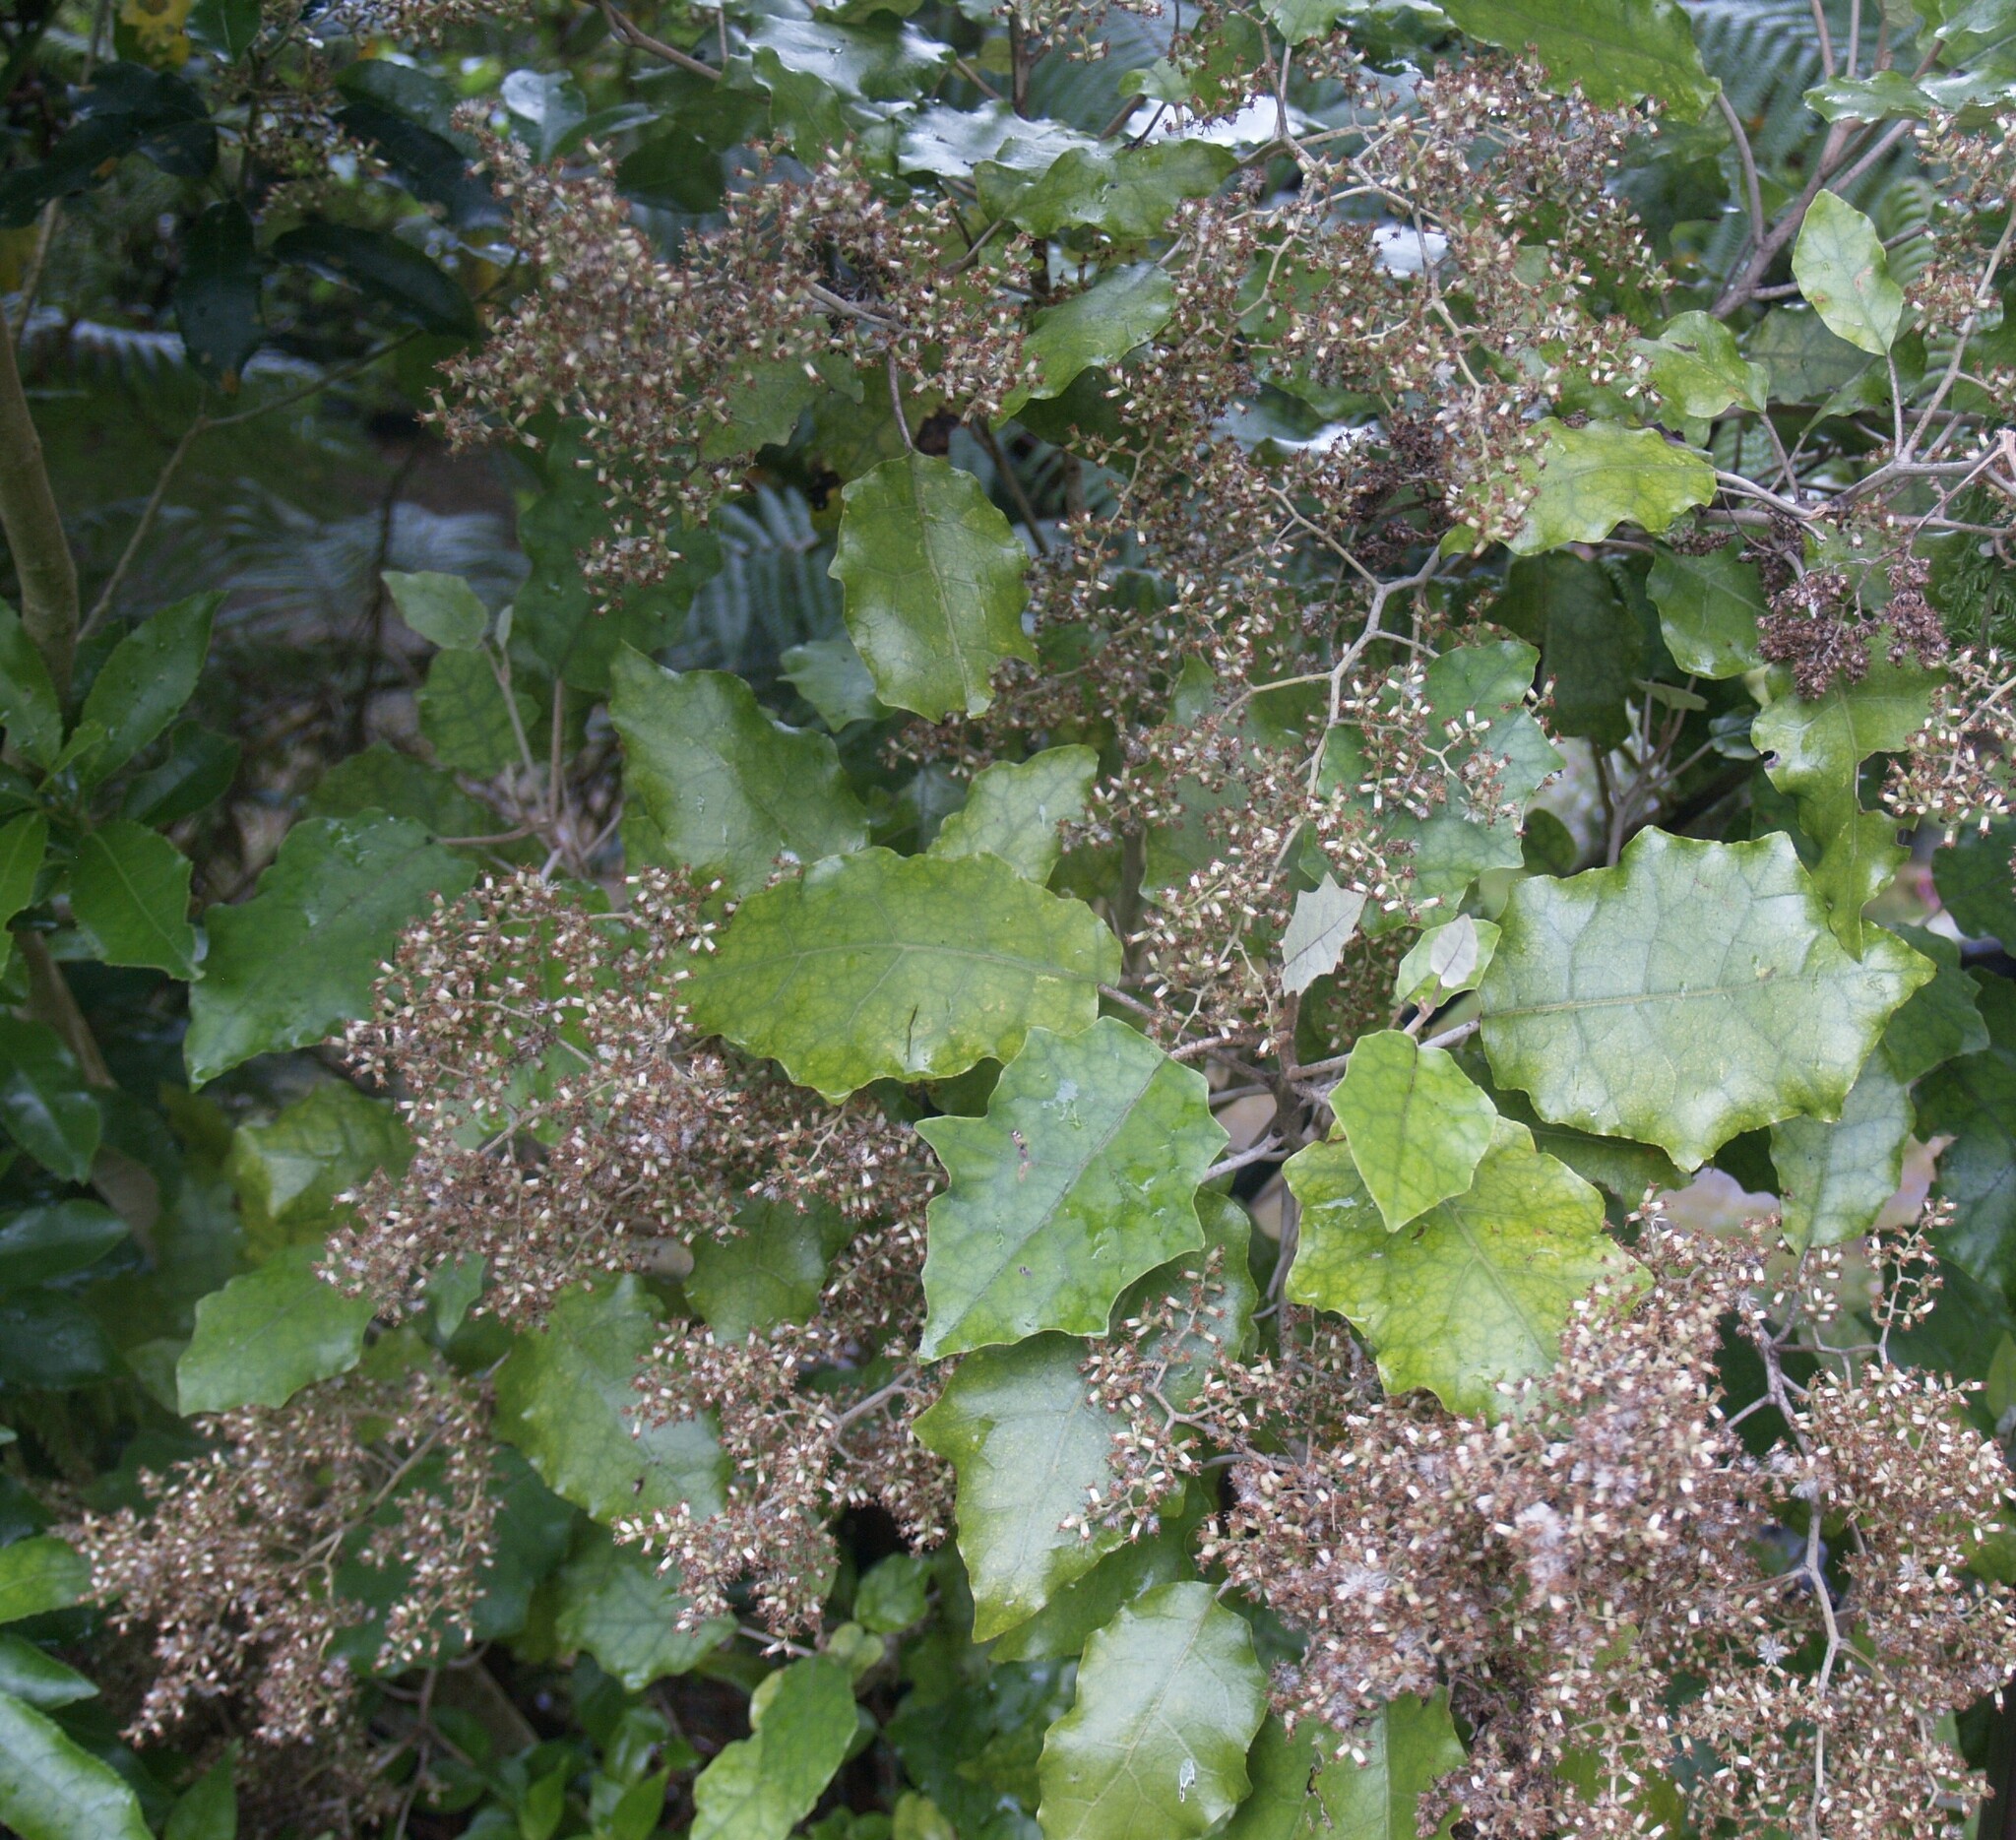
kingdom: Plantae
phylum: Tracheophyta
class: Magnoliopsida
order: Asterales
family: Asteraceae
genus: Brachyglottis
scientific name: Brachyglottis repanda
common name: Hedge ragwort
